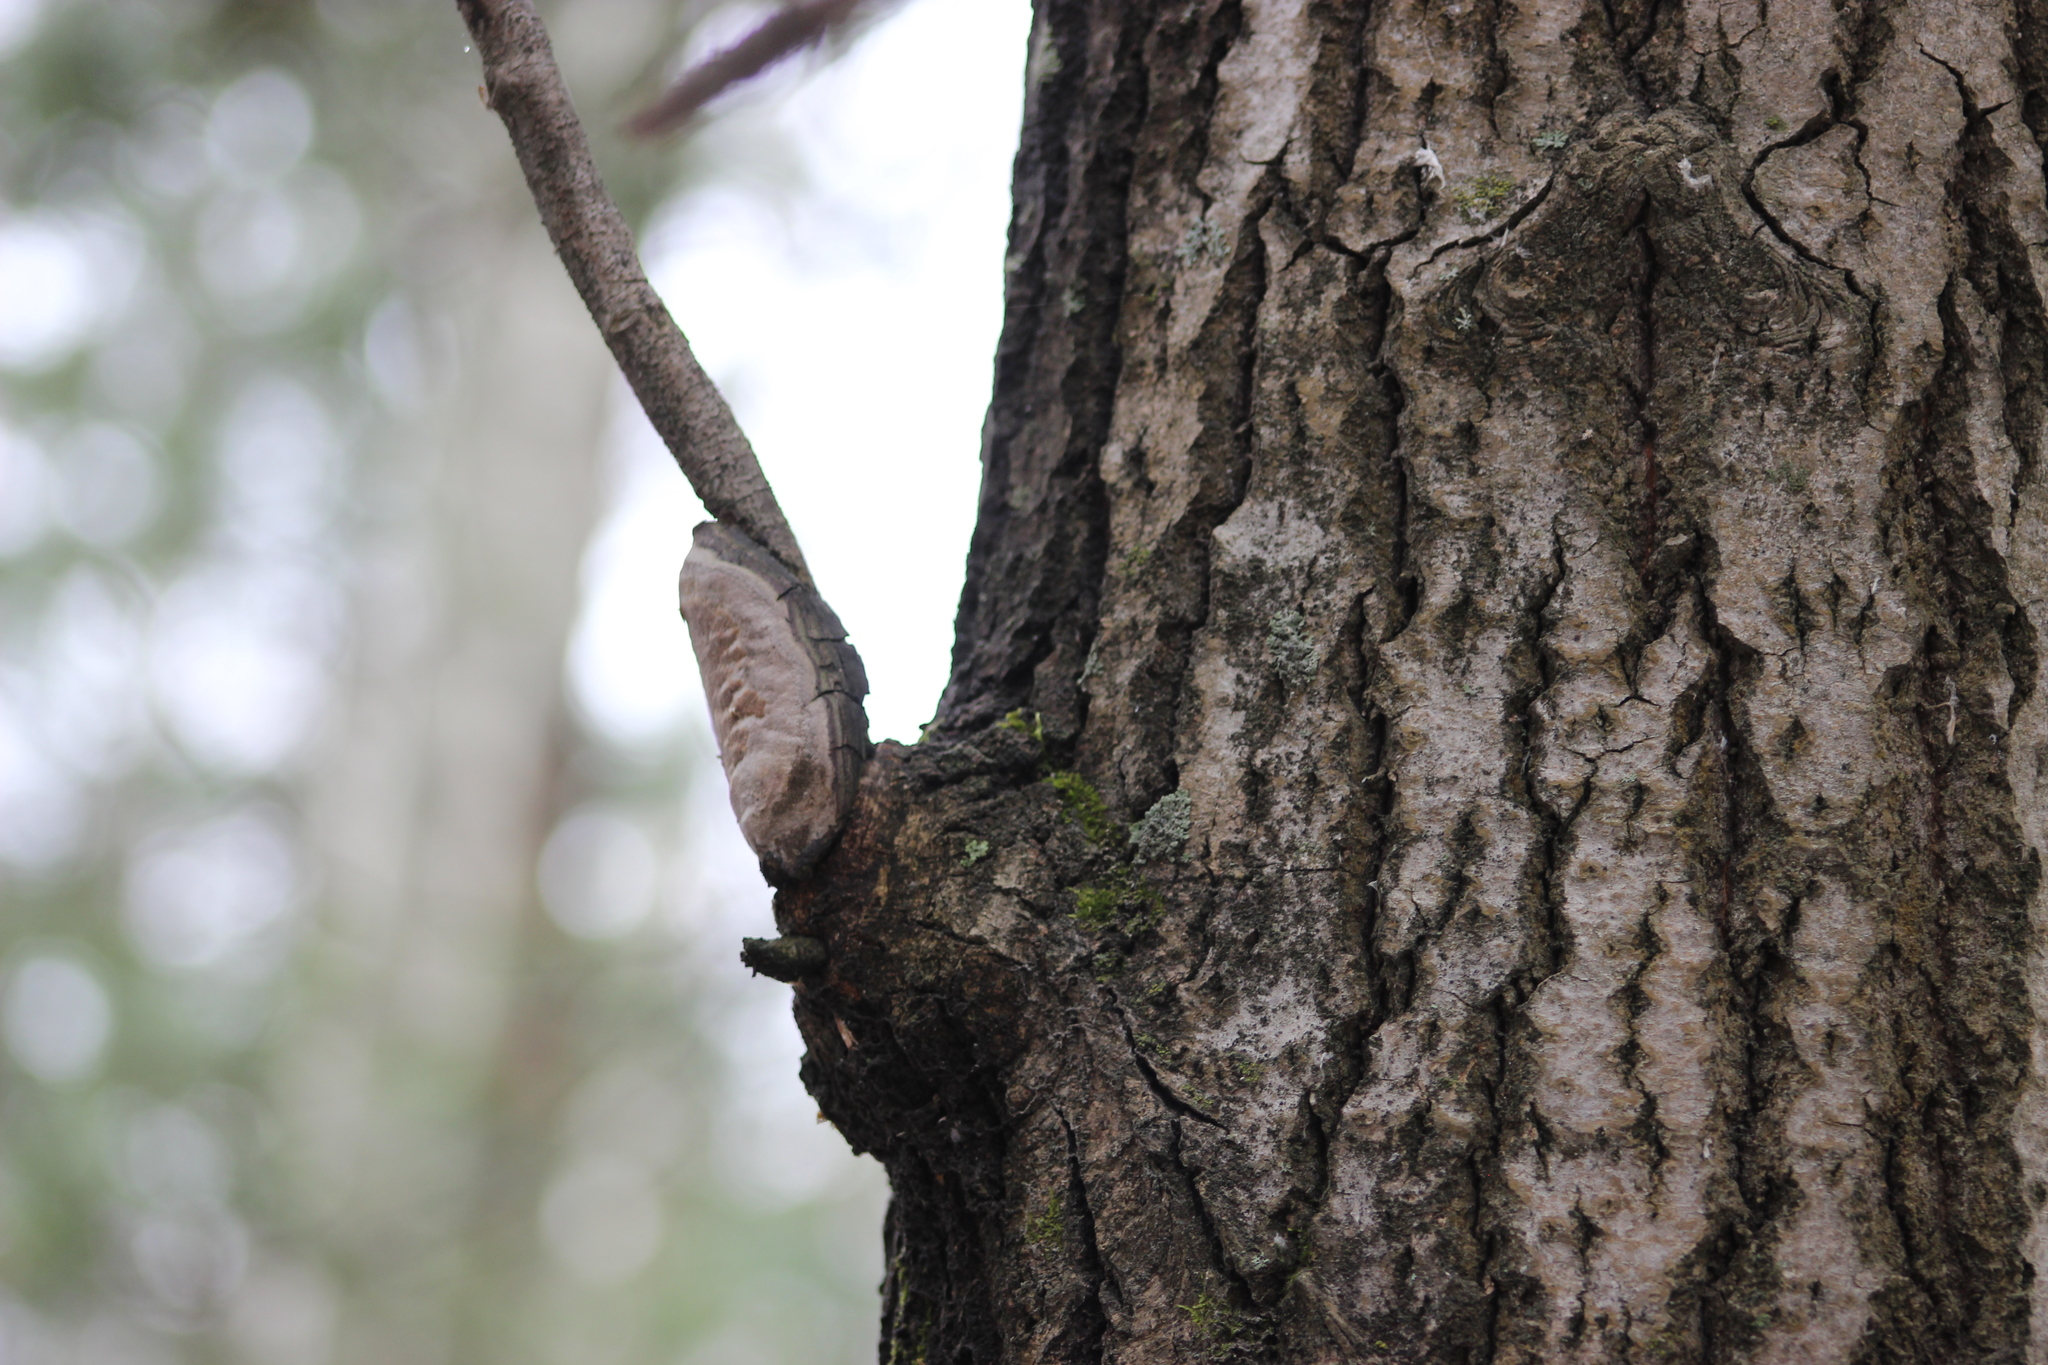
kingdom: Fungi
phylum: Basidiomycota
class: Agaricomycetes
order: Hymenochaetales
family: Hymenochaetaceae
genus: Phellinus
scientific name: Phellinus tremulae
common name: Aspen bracket
